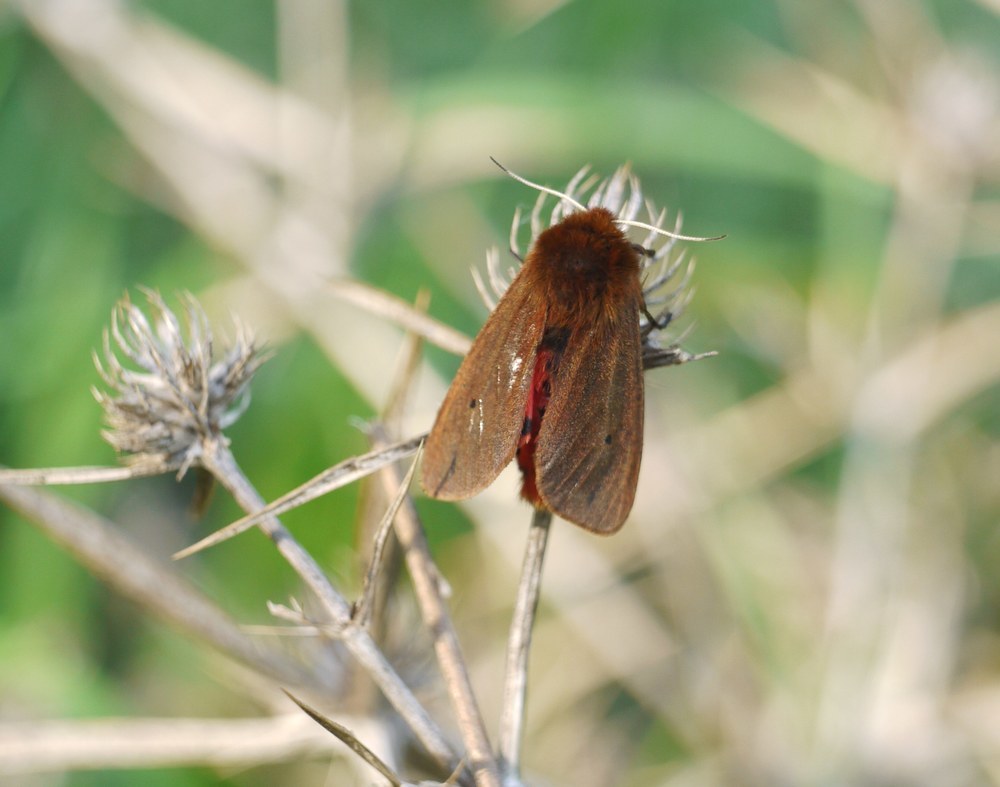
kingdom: Animalia
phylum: Arthropoda
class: Insecta
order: Lepidoptera
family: Erebidae
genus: Phragmatobia
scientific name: Phragmatobia fuliginosa
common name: Ruby tiger
